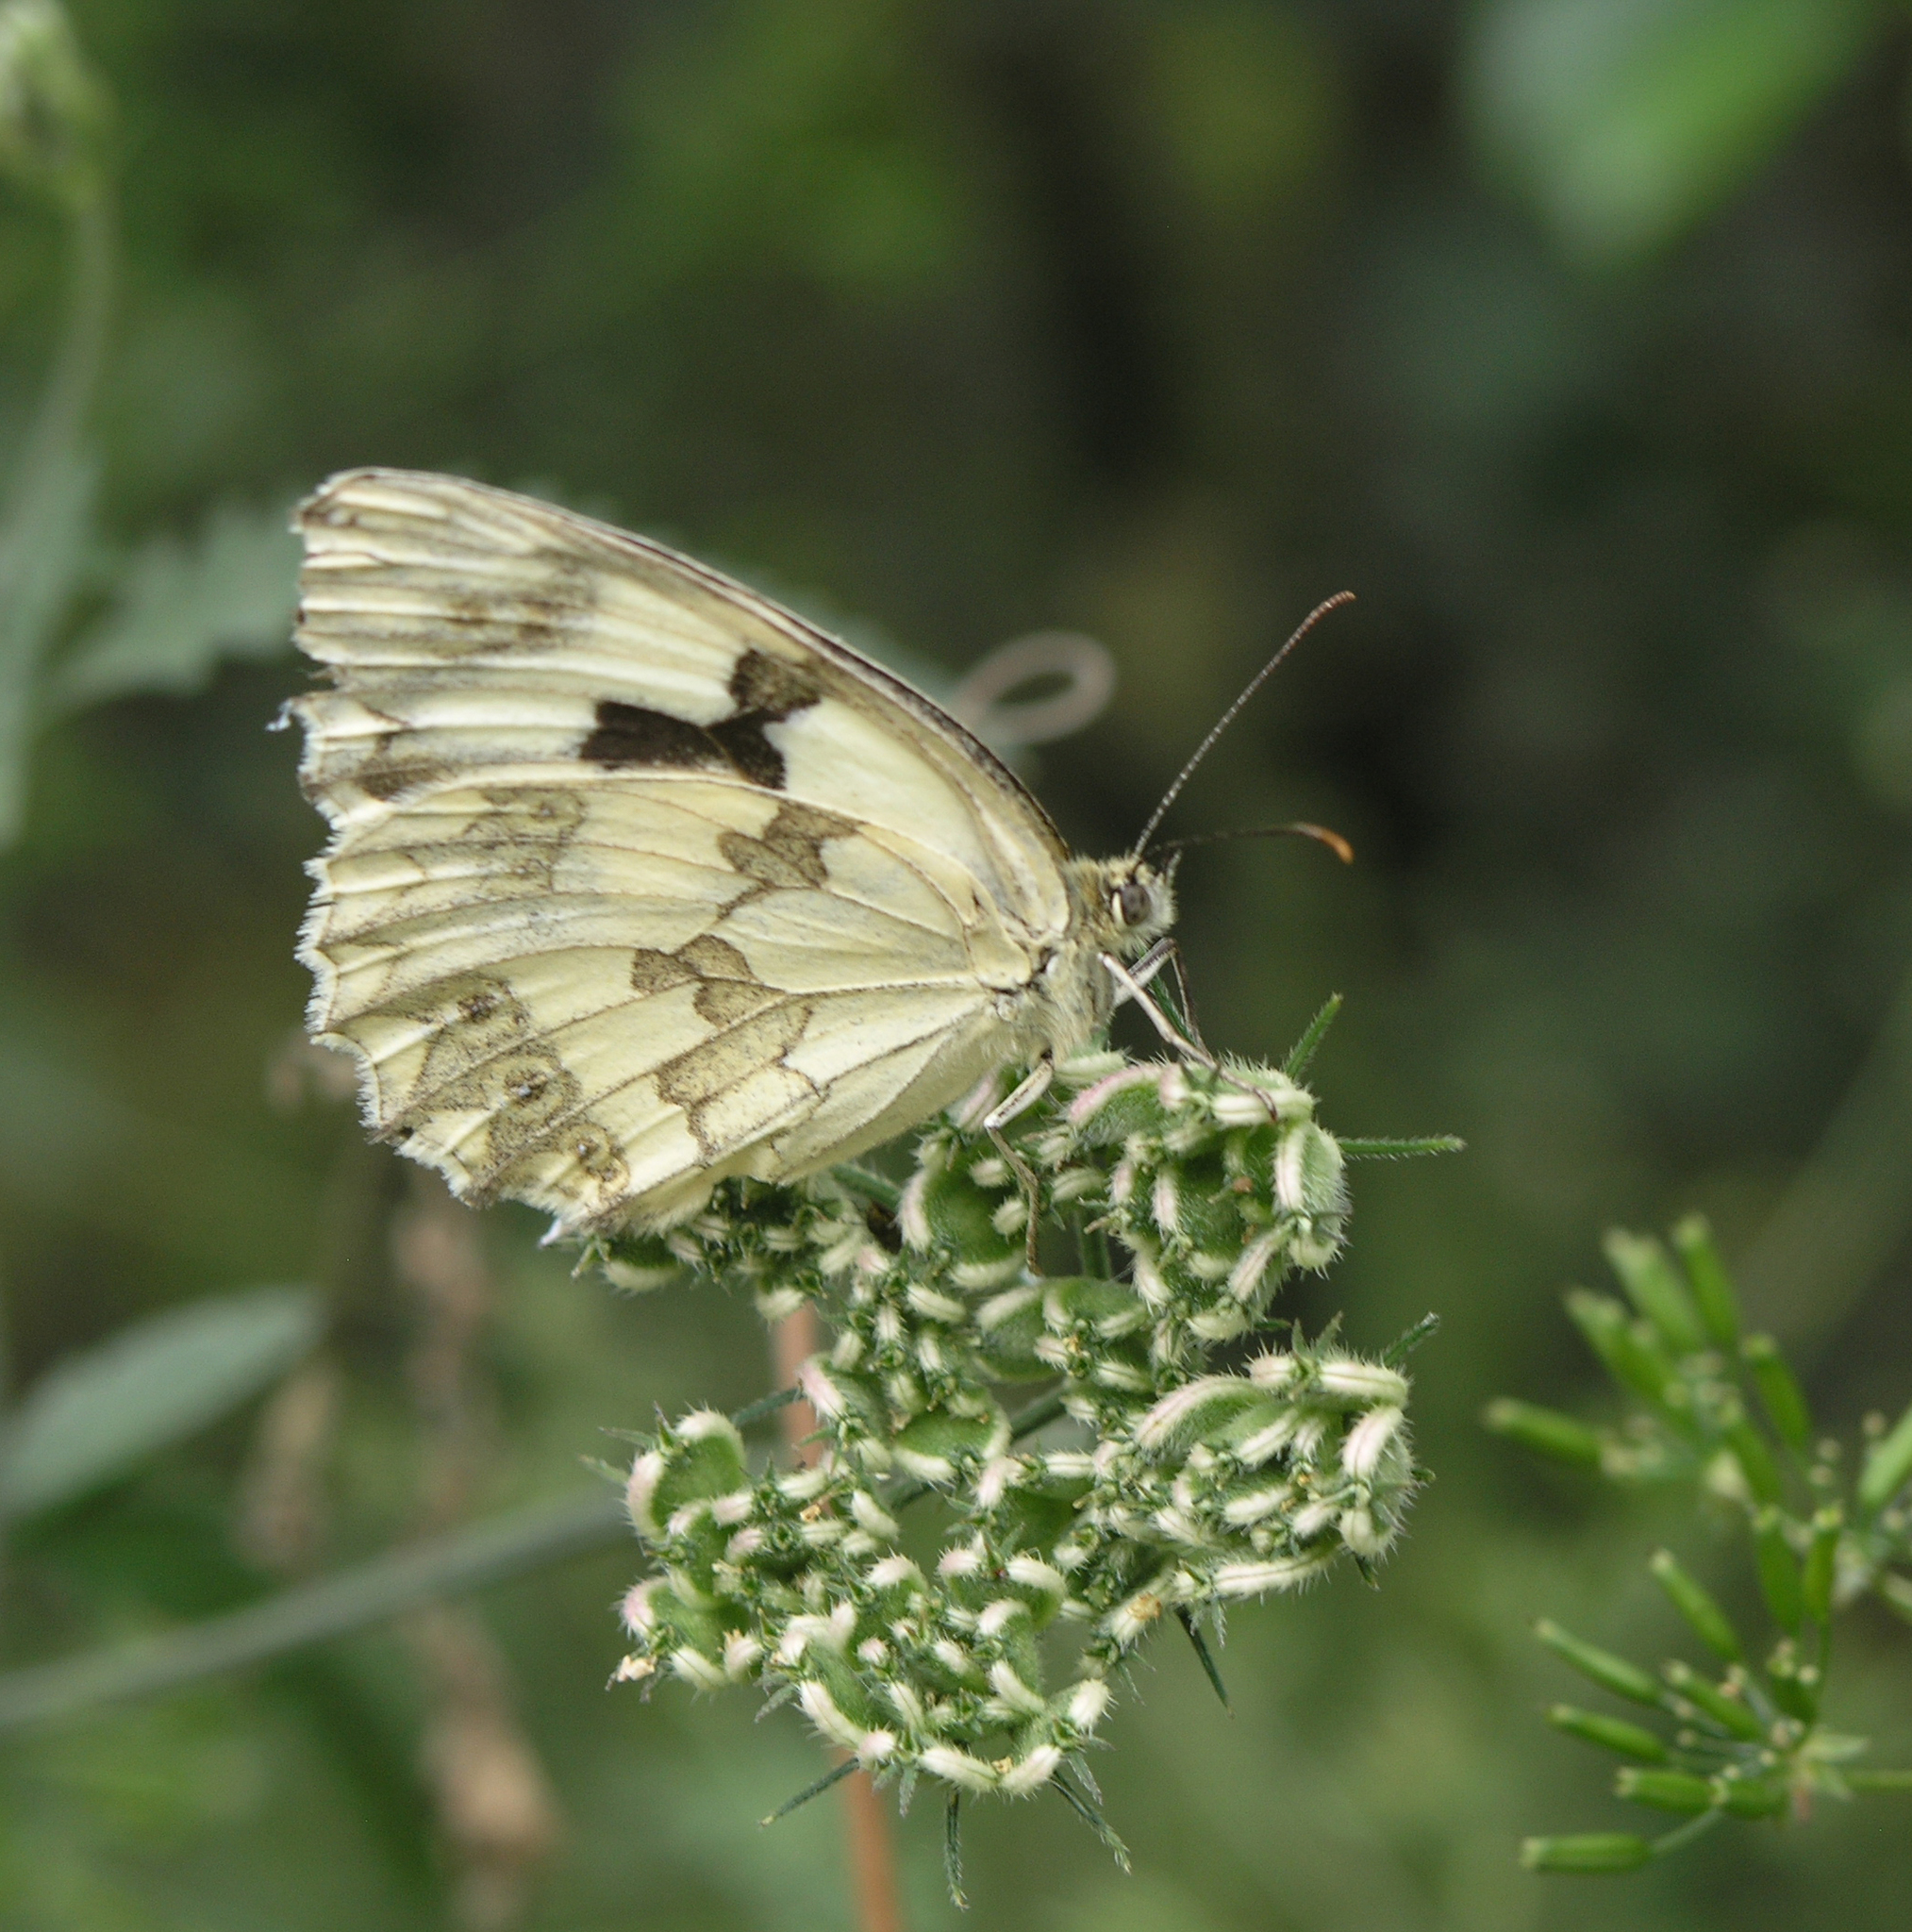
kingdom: Animalia
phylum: Arthropoda
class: Insecta
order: Lepidoptera
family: Nymphalidae
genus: Melanargia
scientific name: Melanargia lachesis
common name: Iberian marbled white
